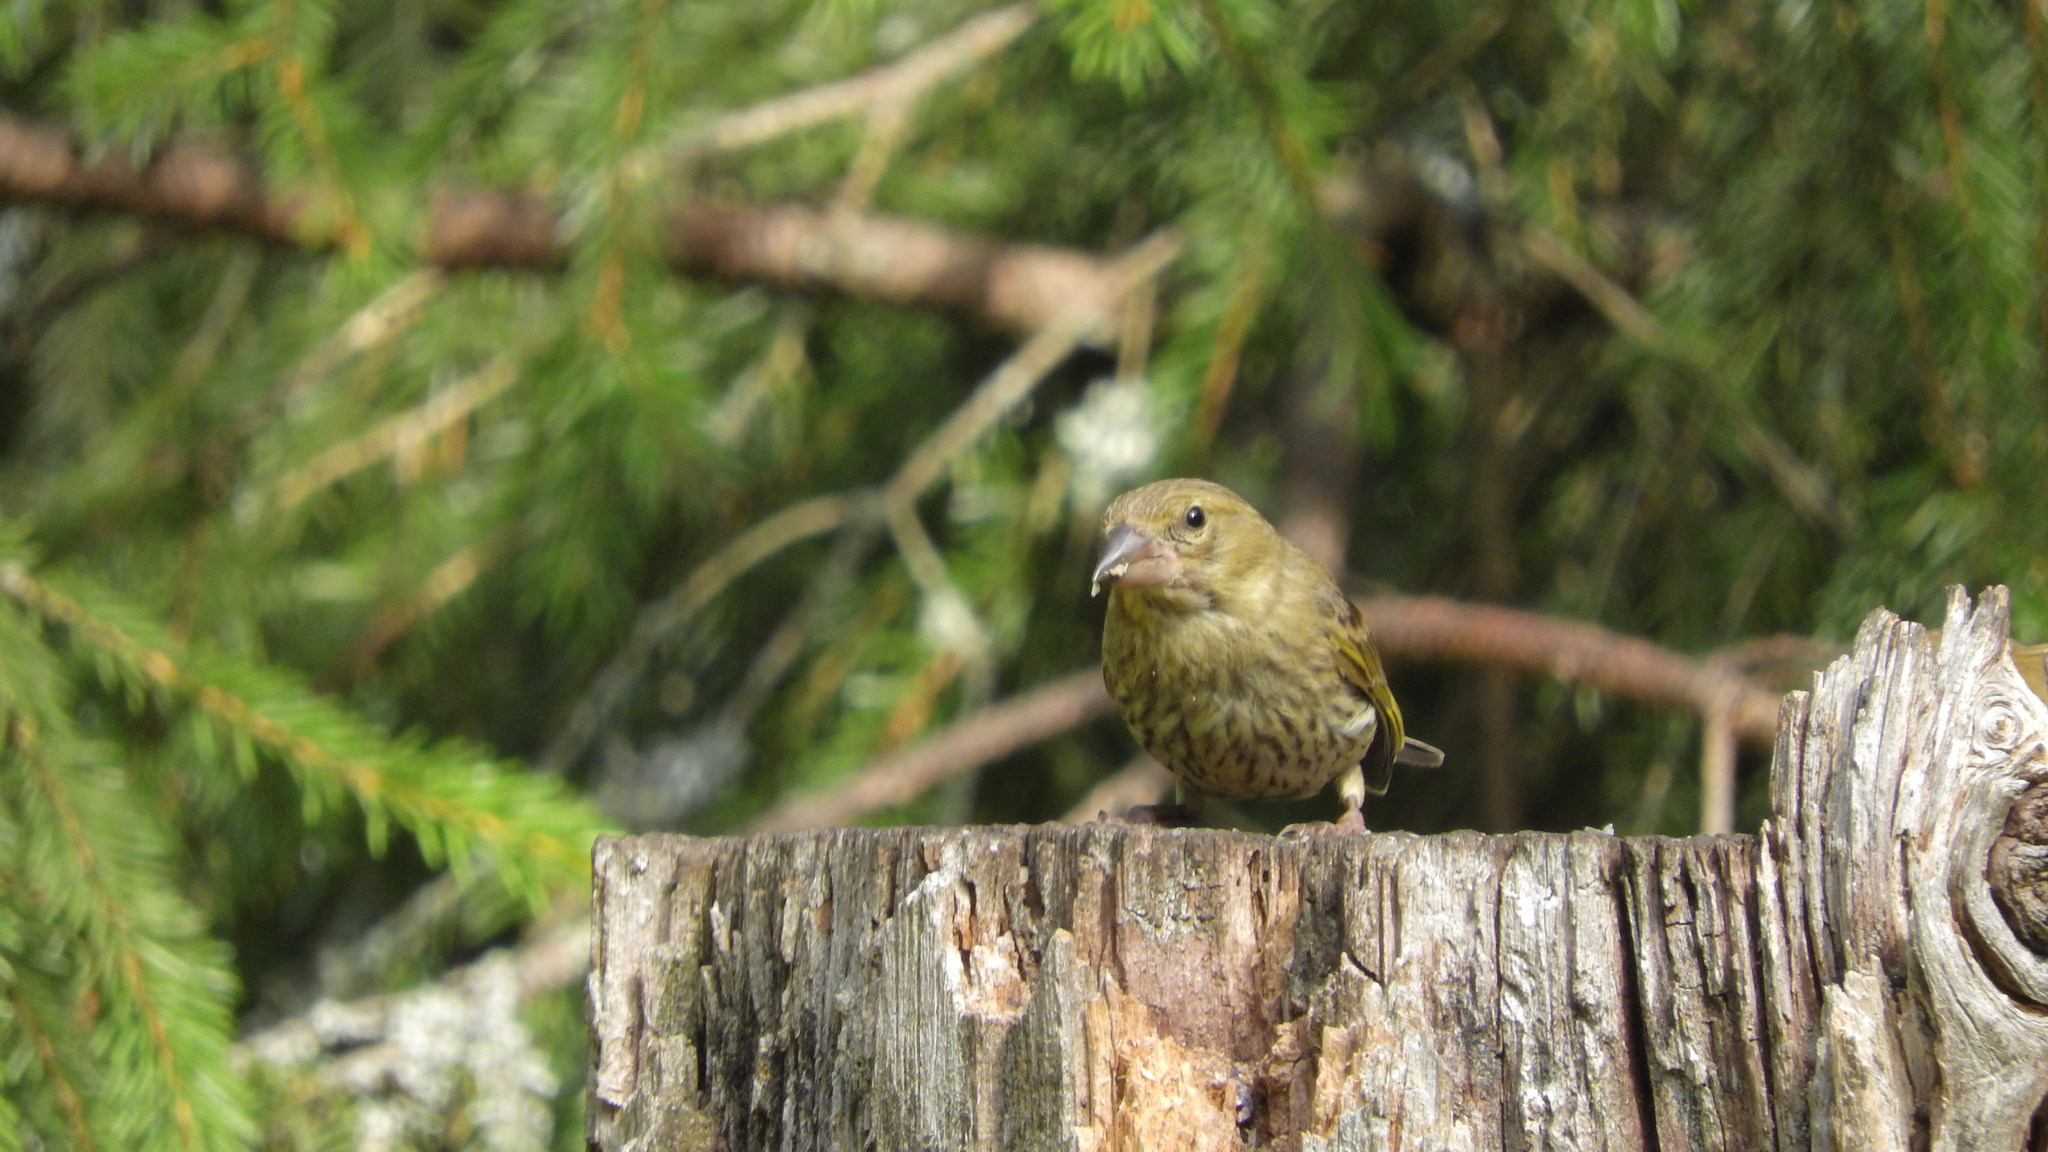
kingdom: Plantae
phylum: Tracheophyta
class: Liliopsida
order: Poales
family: Poaceae
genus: Chloris
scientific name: Chloris chloris
